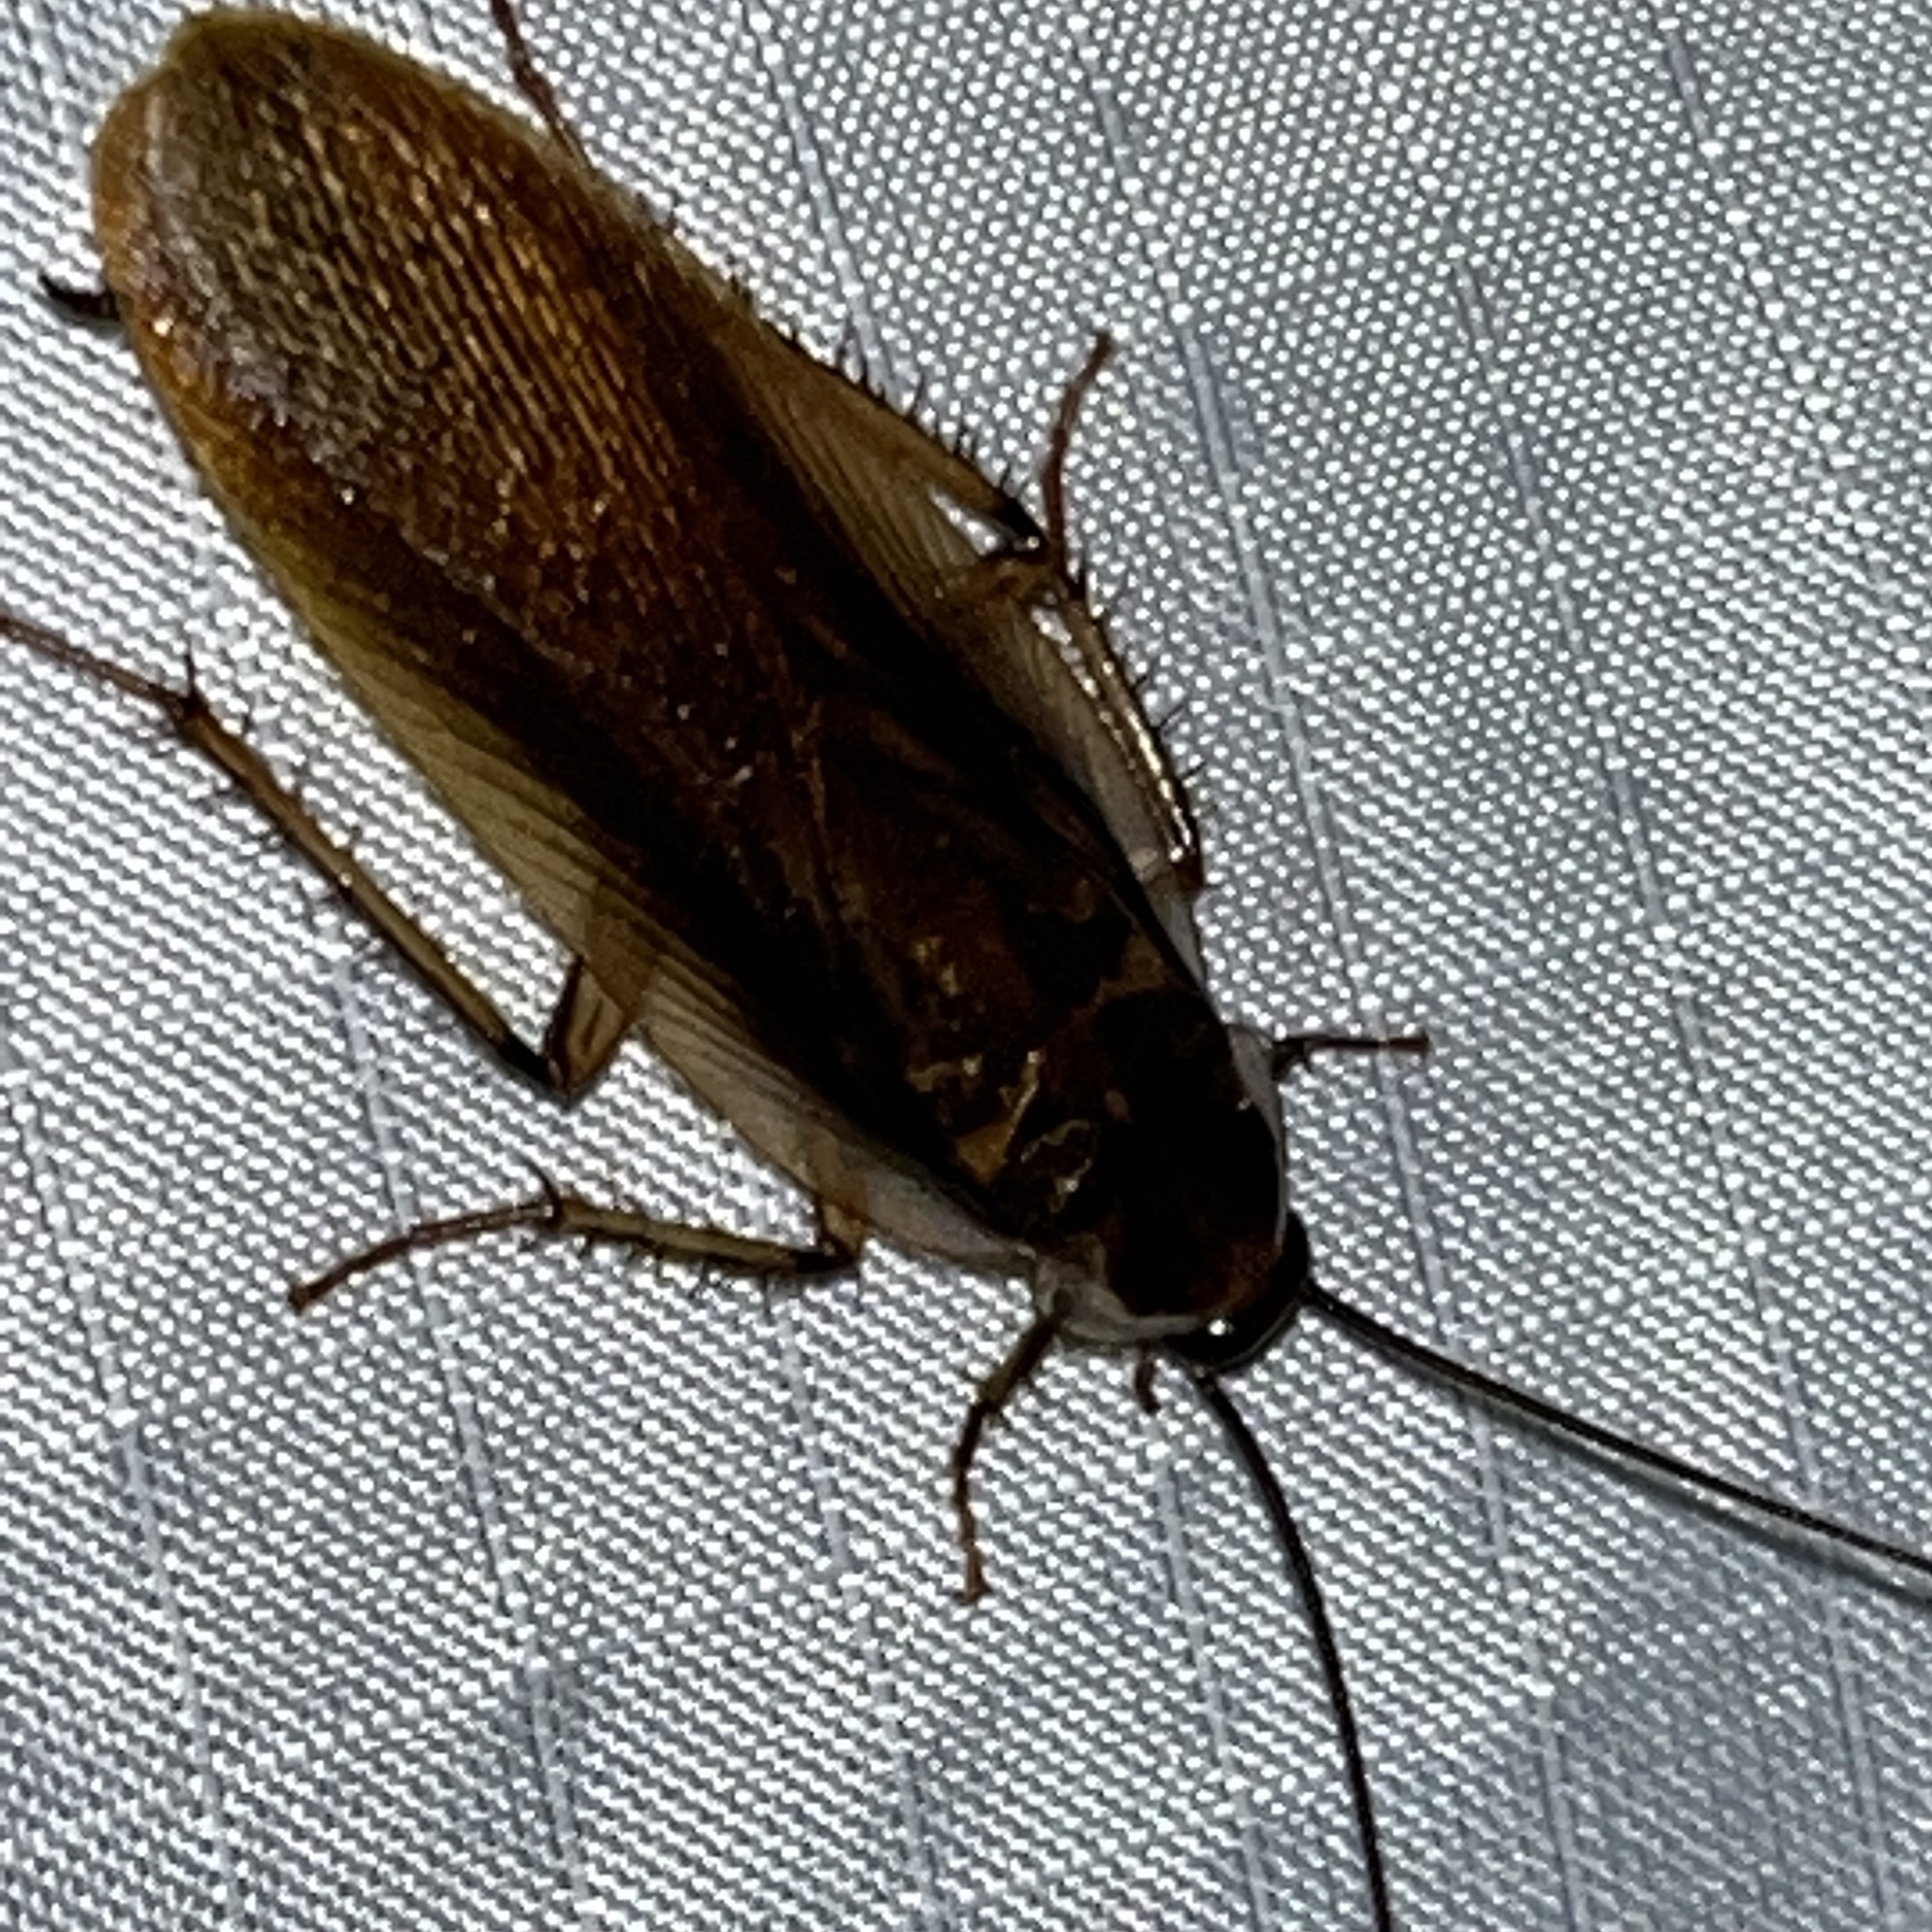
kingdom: Animalia
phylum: Arthropoda
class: Insecta
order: Blattodea
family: Ectobiidae
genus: Parcoblatta
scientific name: Parcoblatta pennsylvanica
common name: Pennsylvanian wood cockroach
